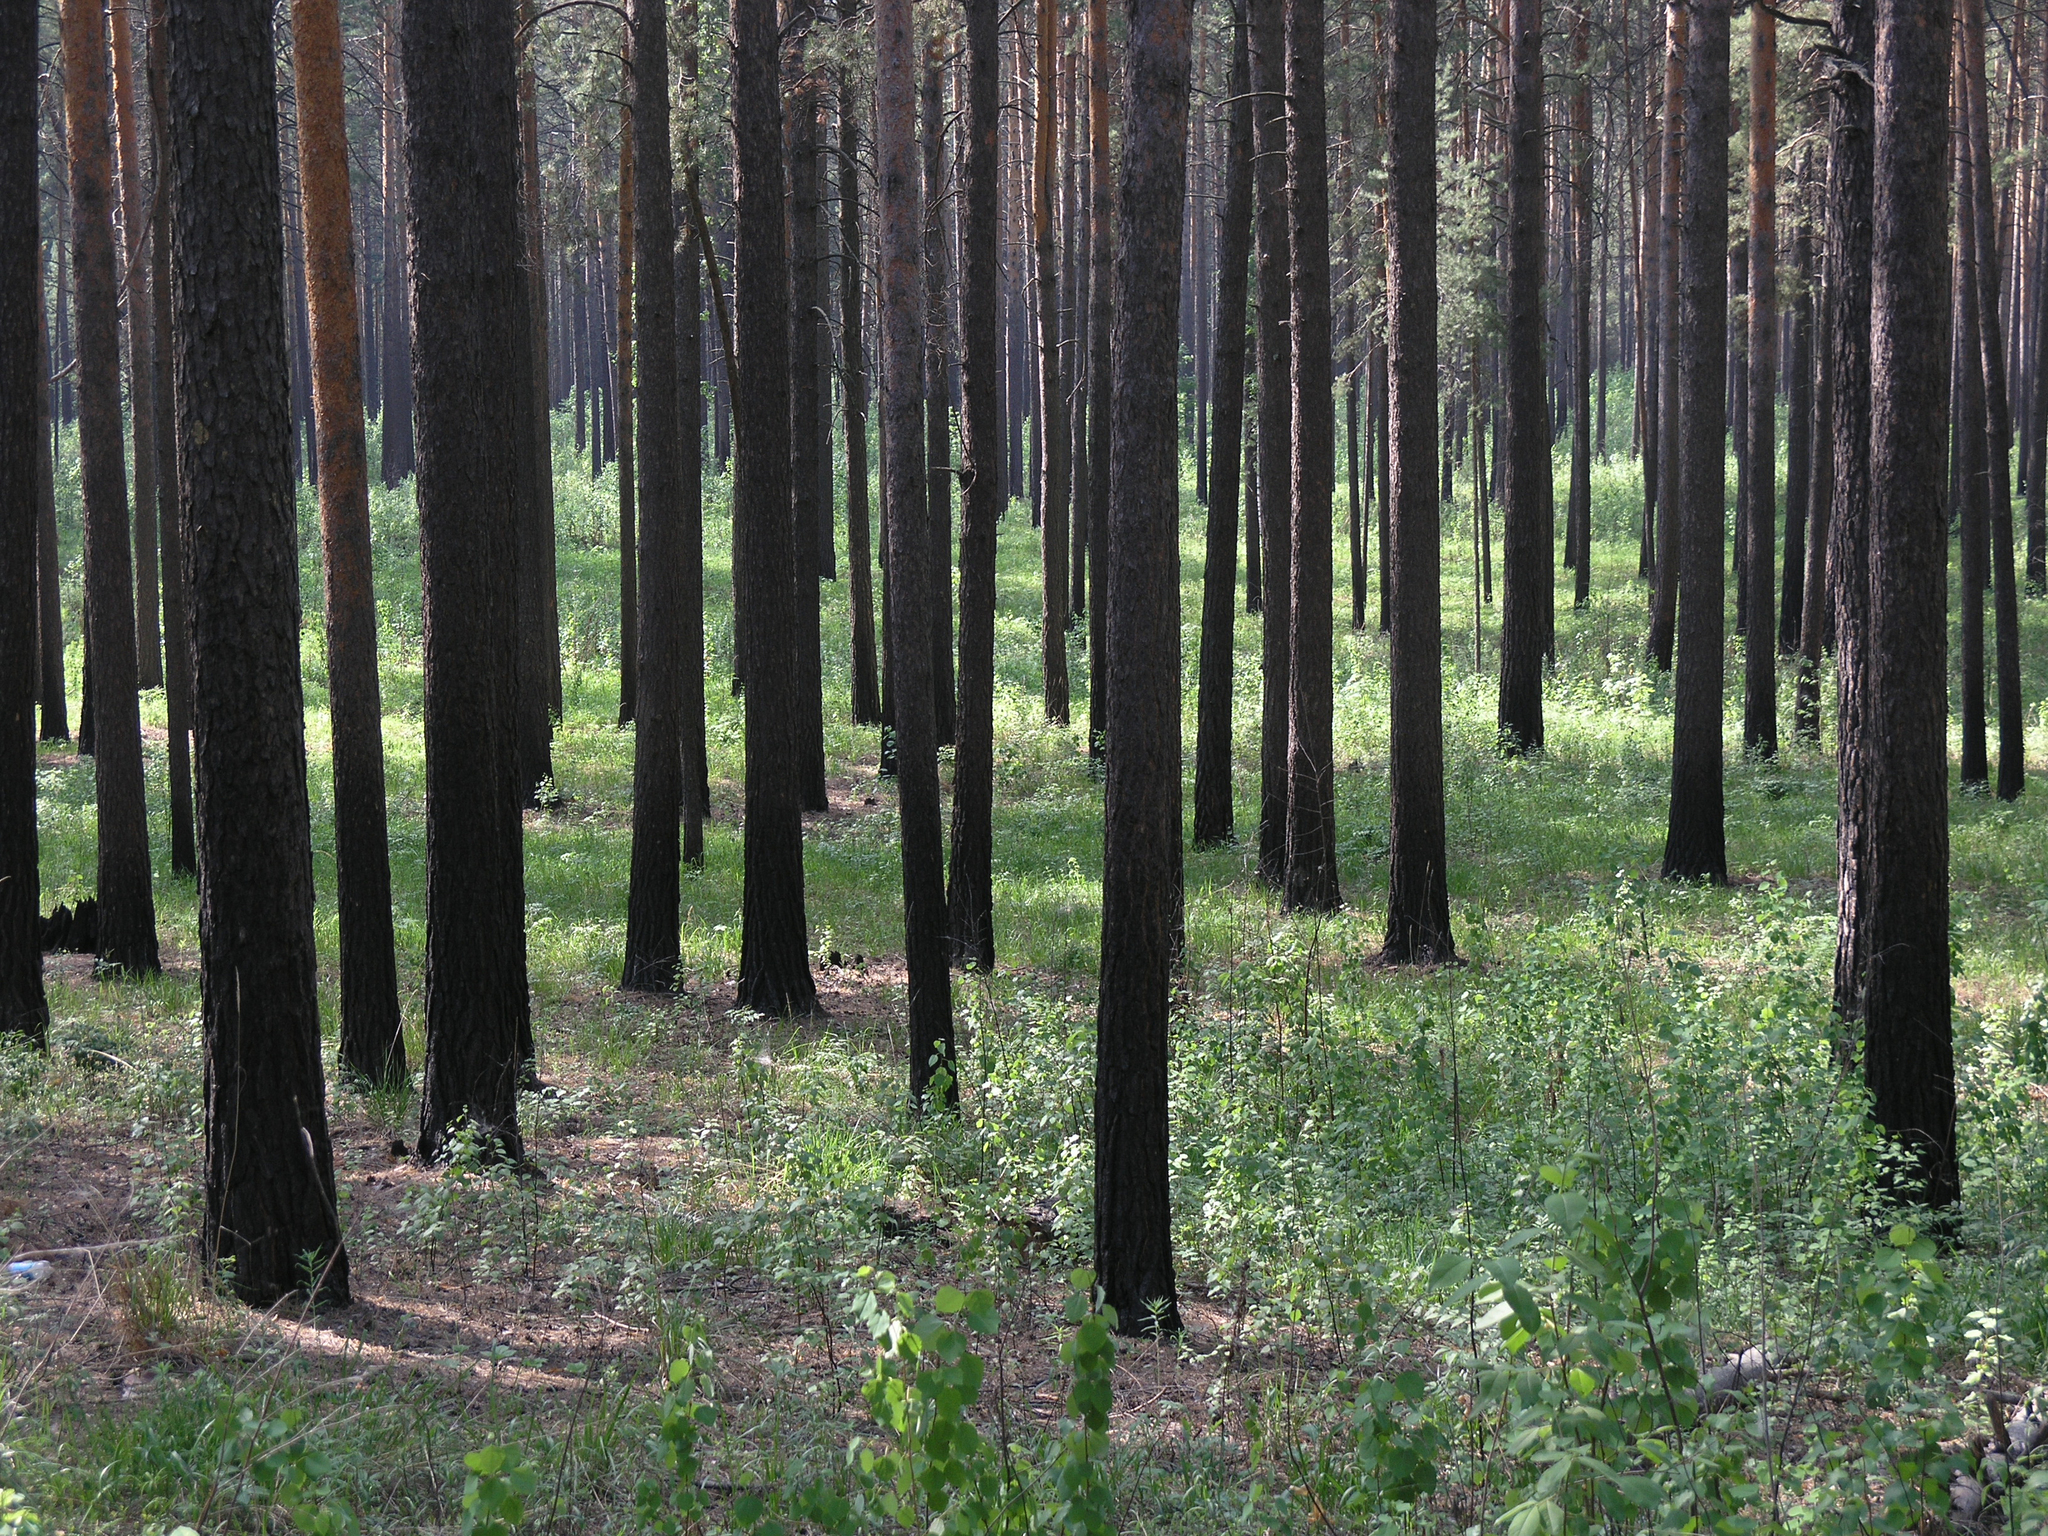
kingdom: Plantae
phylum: Tracheophyta
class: Pinopsida
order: Pinales
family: Pinaceae
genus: Pinus
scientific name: Pinus sylvestris
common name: Scots pine
